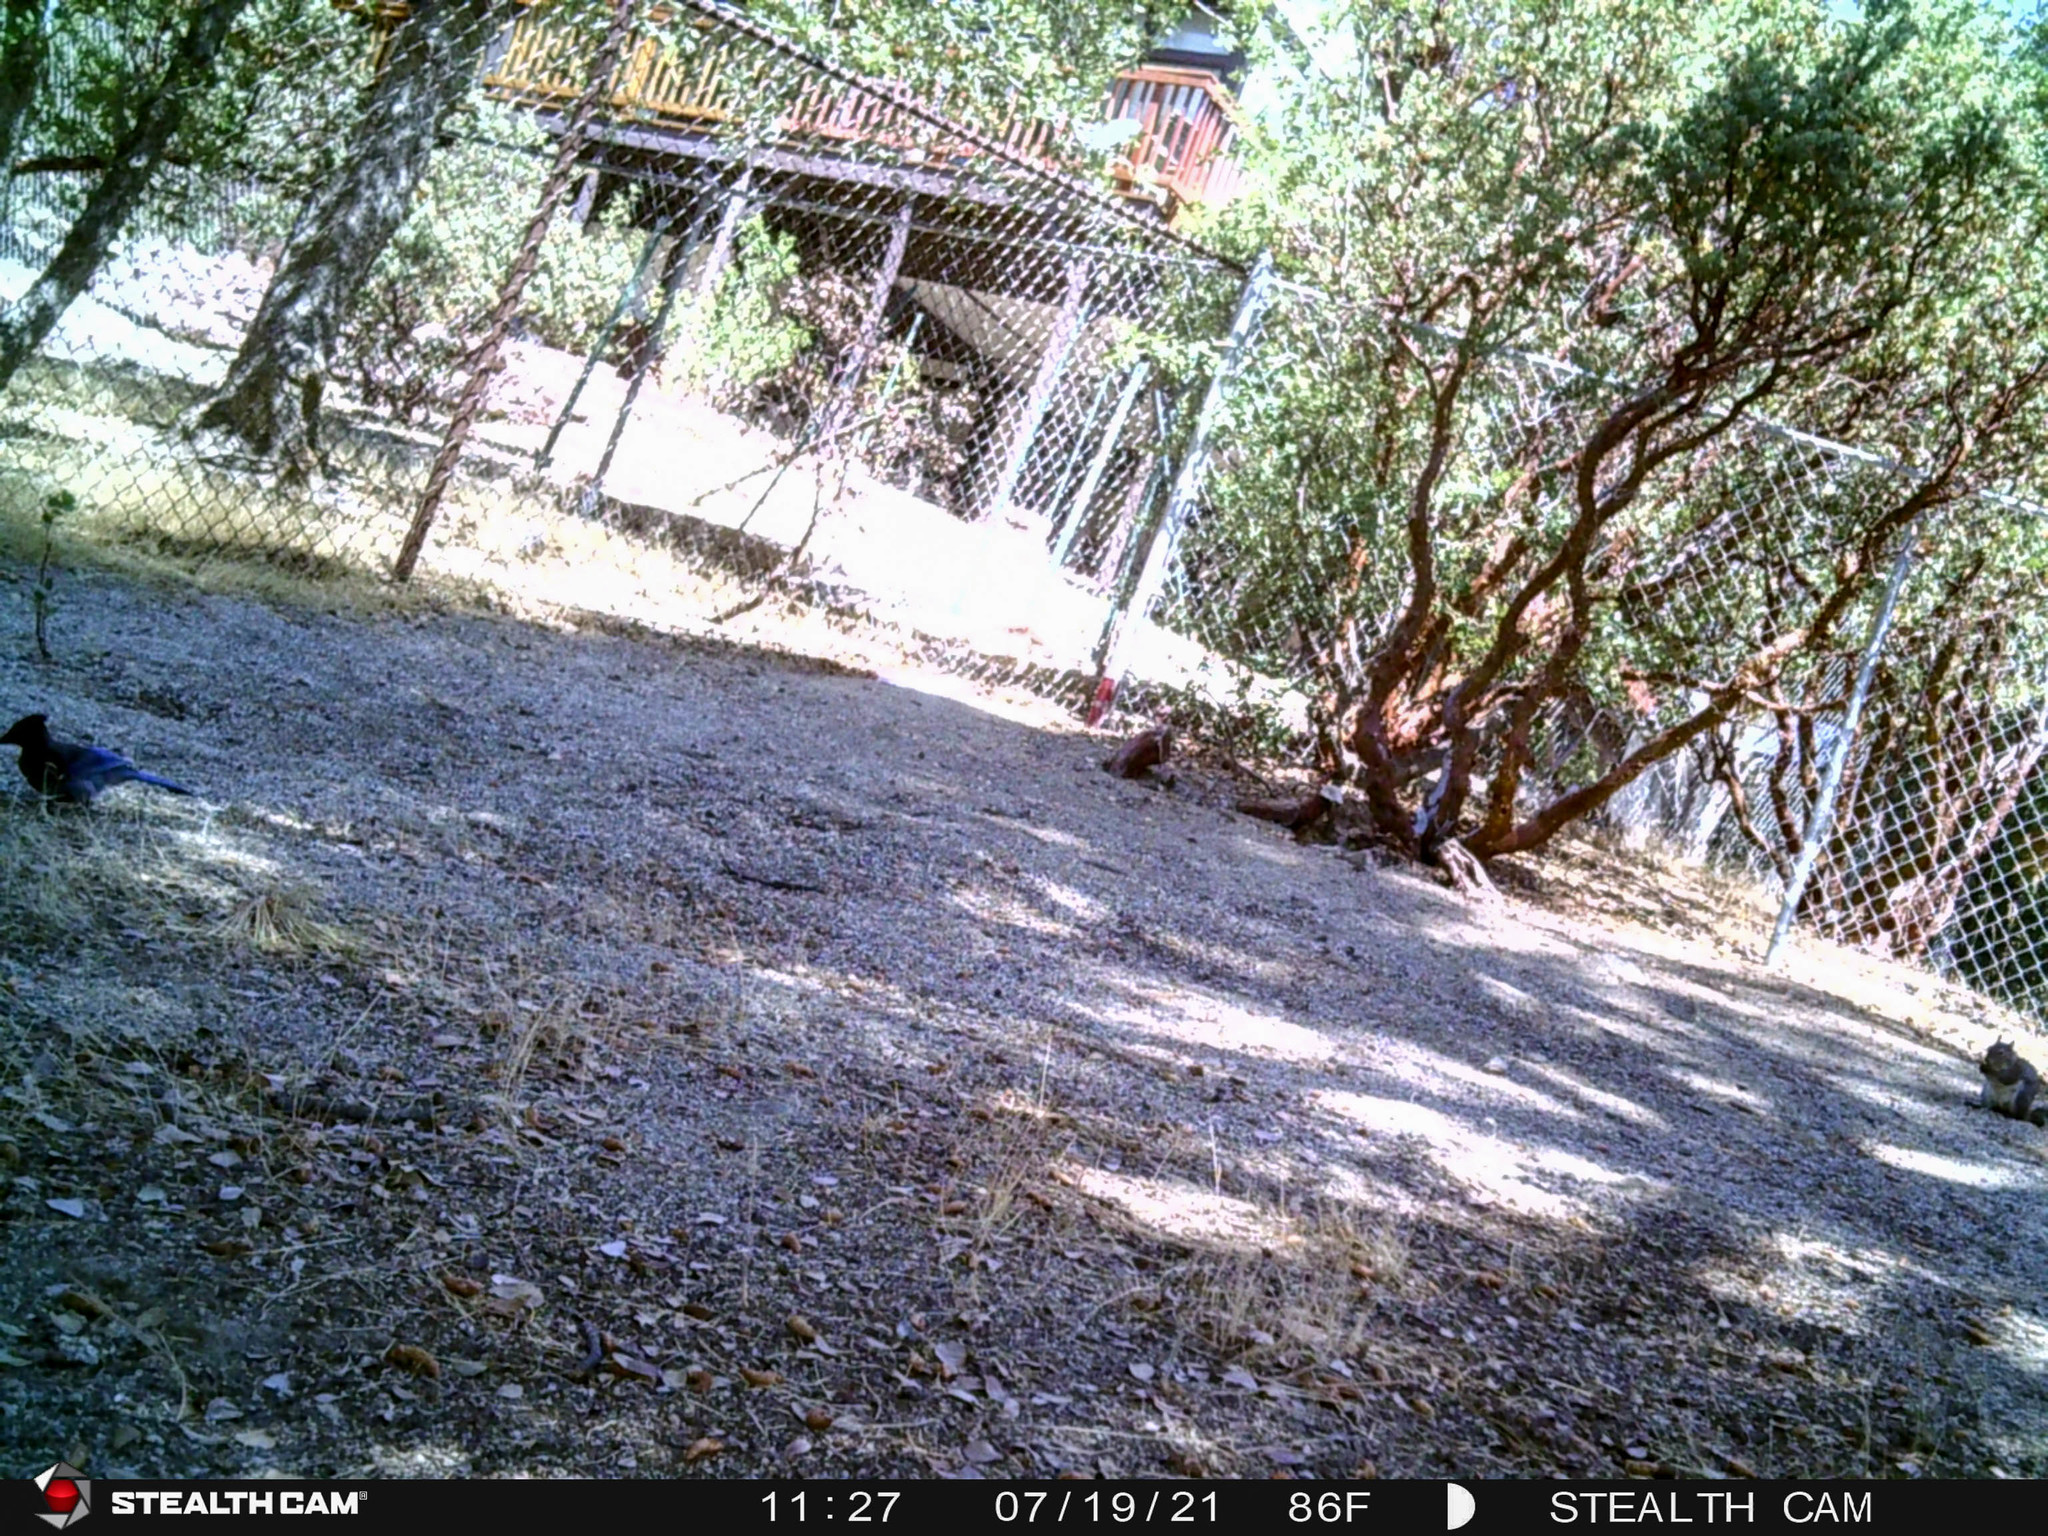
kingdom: Animalia
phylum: Chordata
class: Aves
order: Passeriformes
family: Corvidae
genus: Cyanocitta
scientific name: Cyanocitta stelleri
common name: Steller's jay
